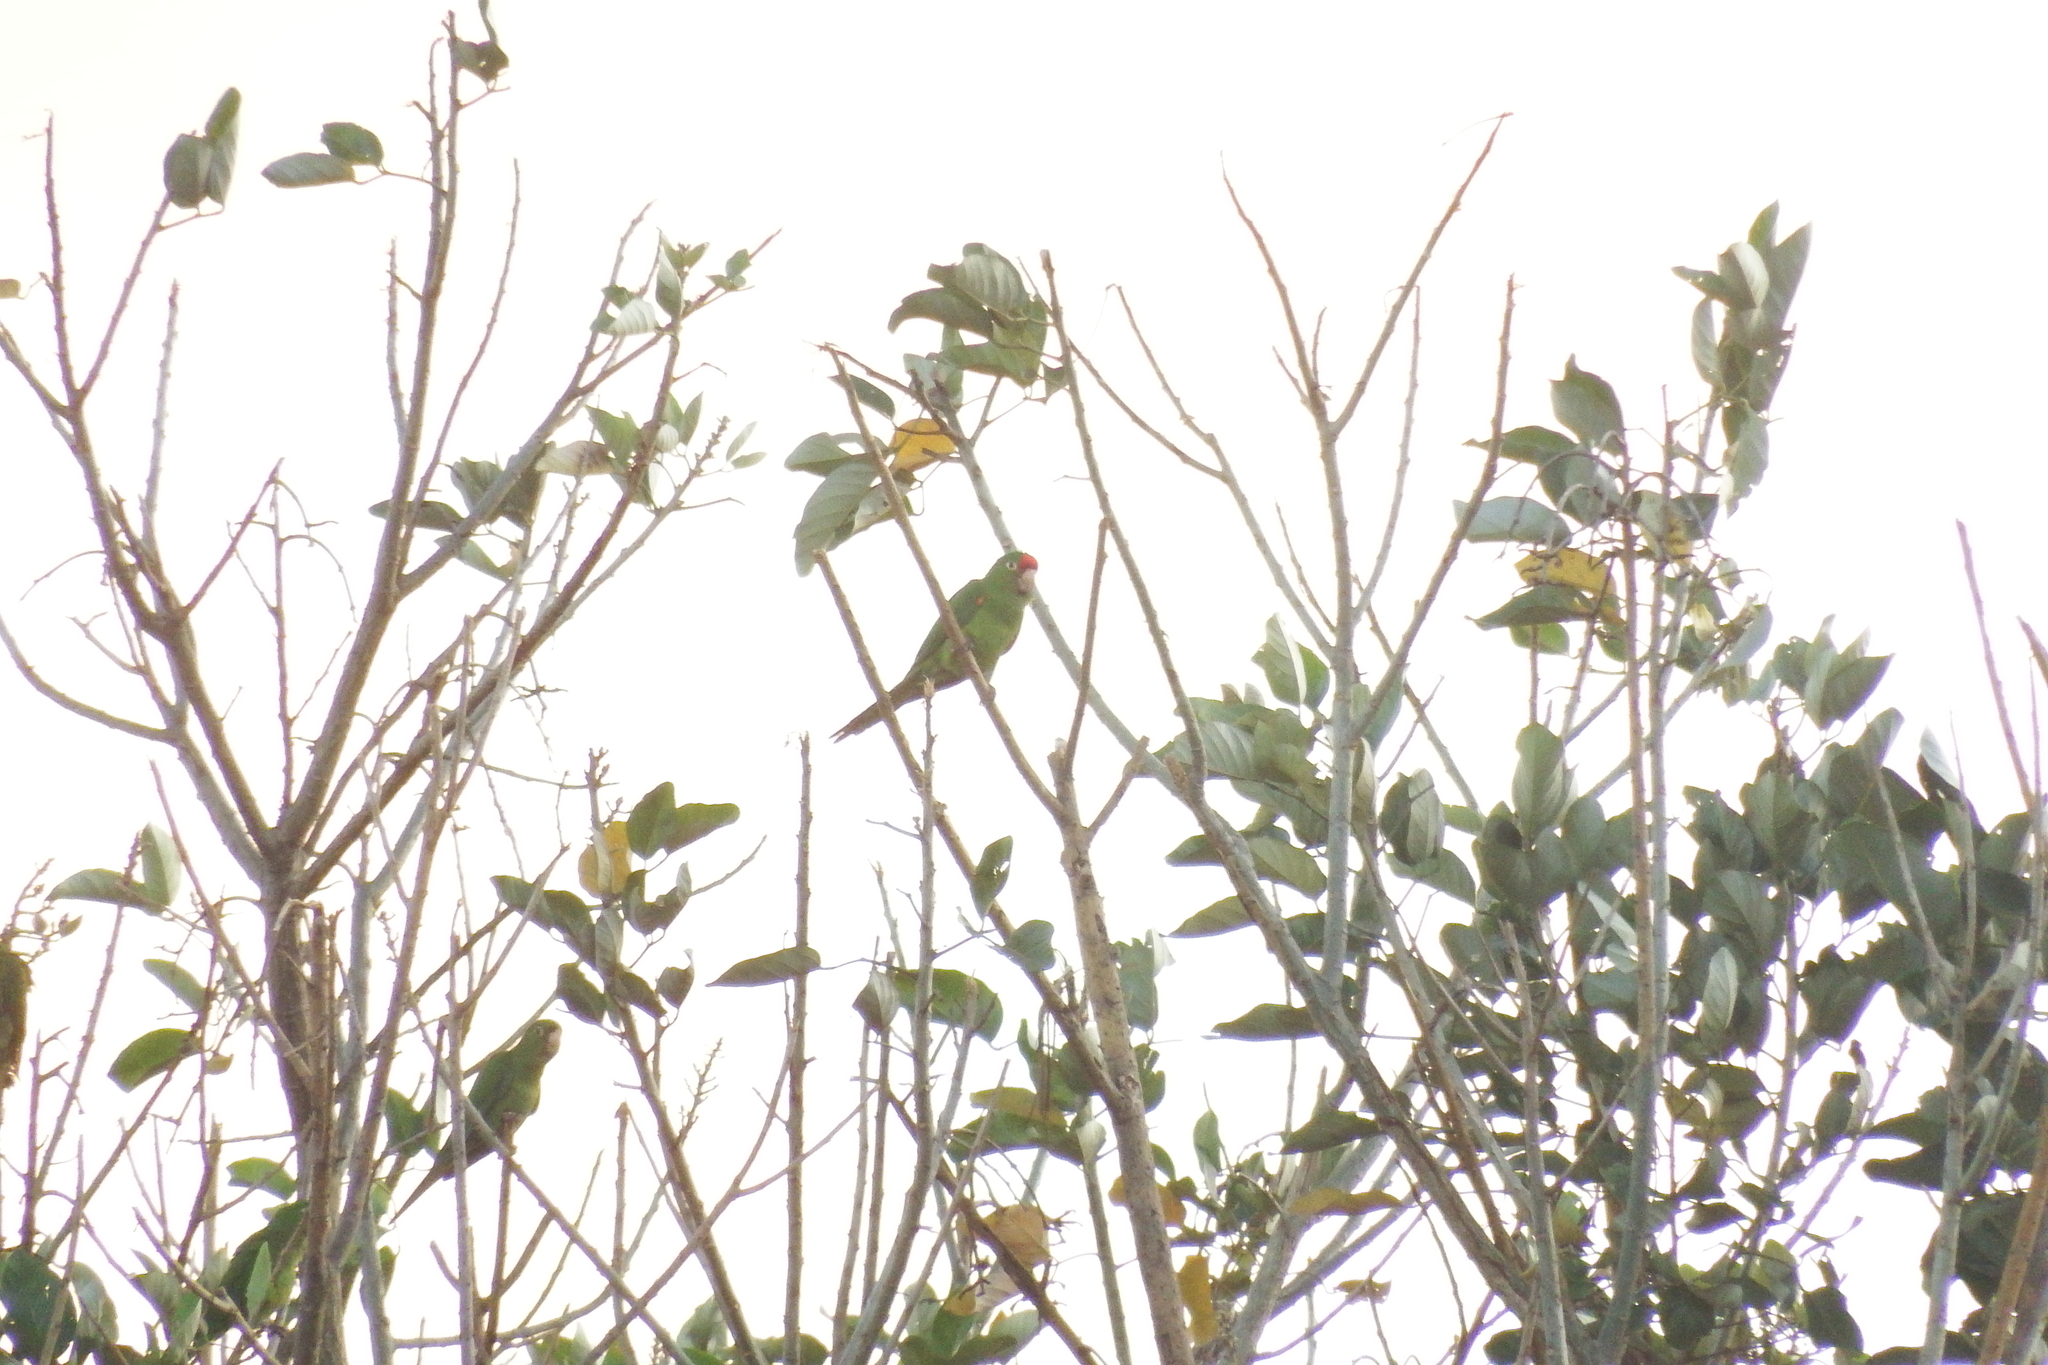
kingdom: Animalia
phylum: Chordata
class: Aves
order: Psittaciformes
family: Psittacidae
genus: Aratinga
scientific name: Aratinga finschi
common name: Crimson-fronted parakeet
